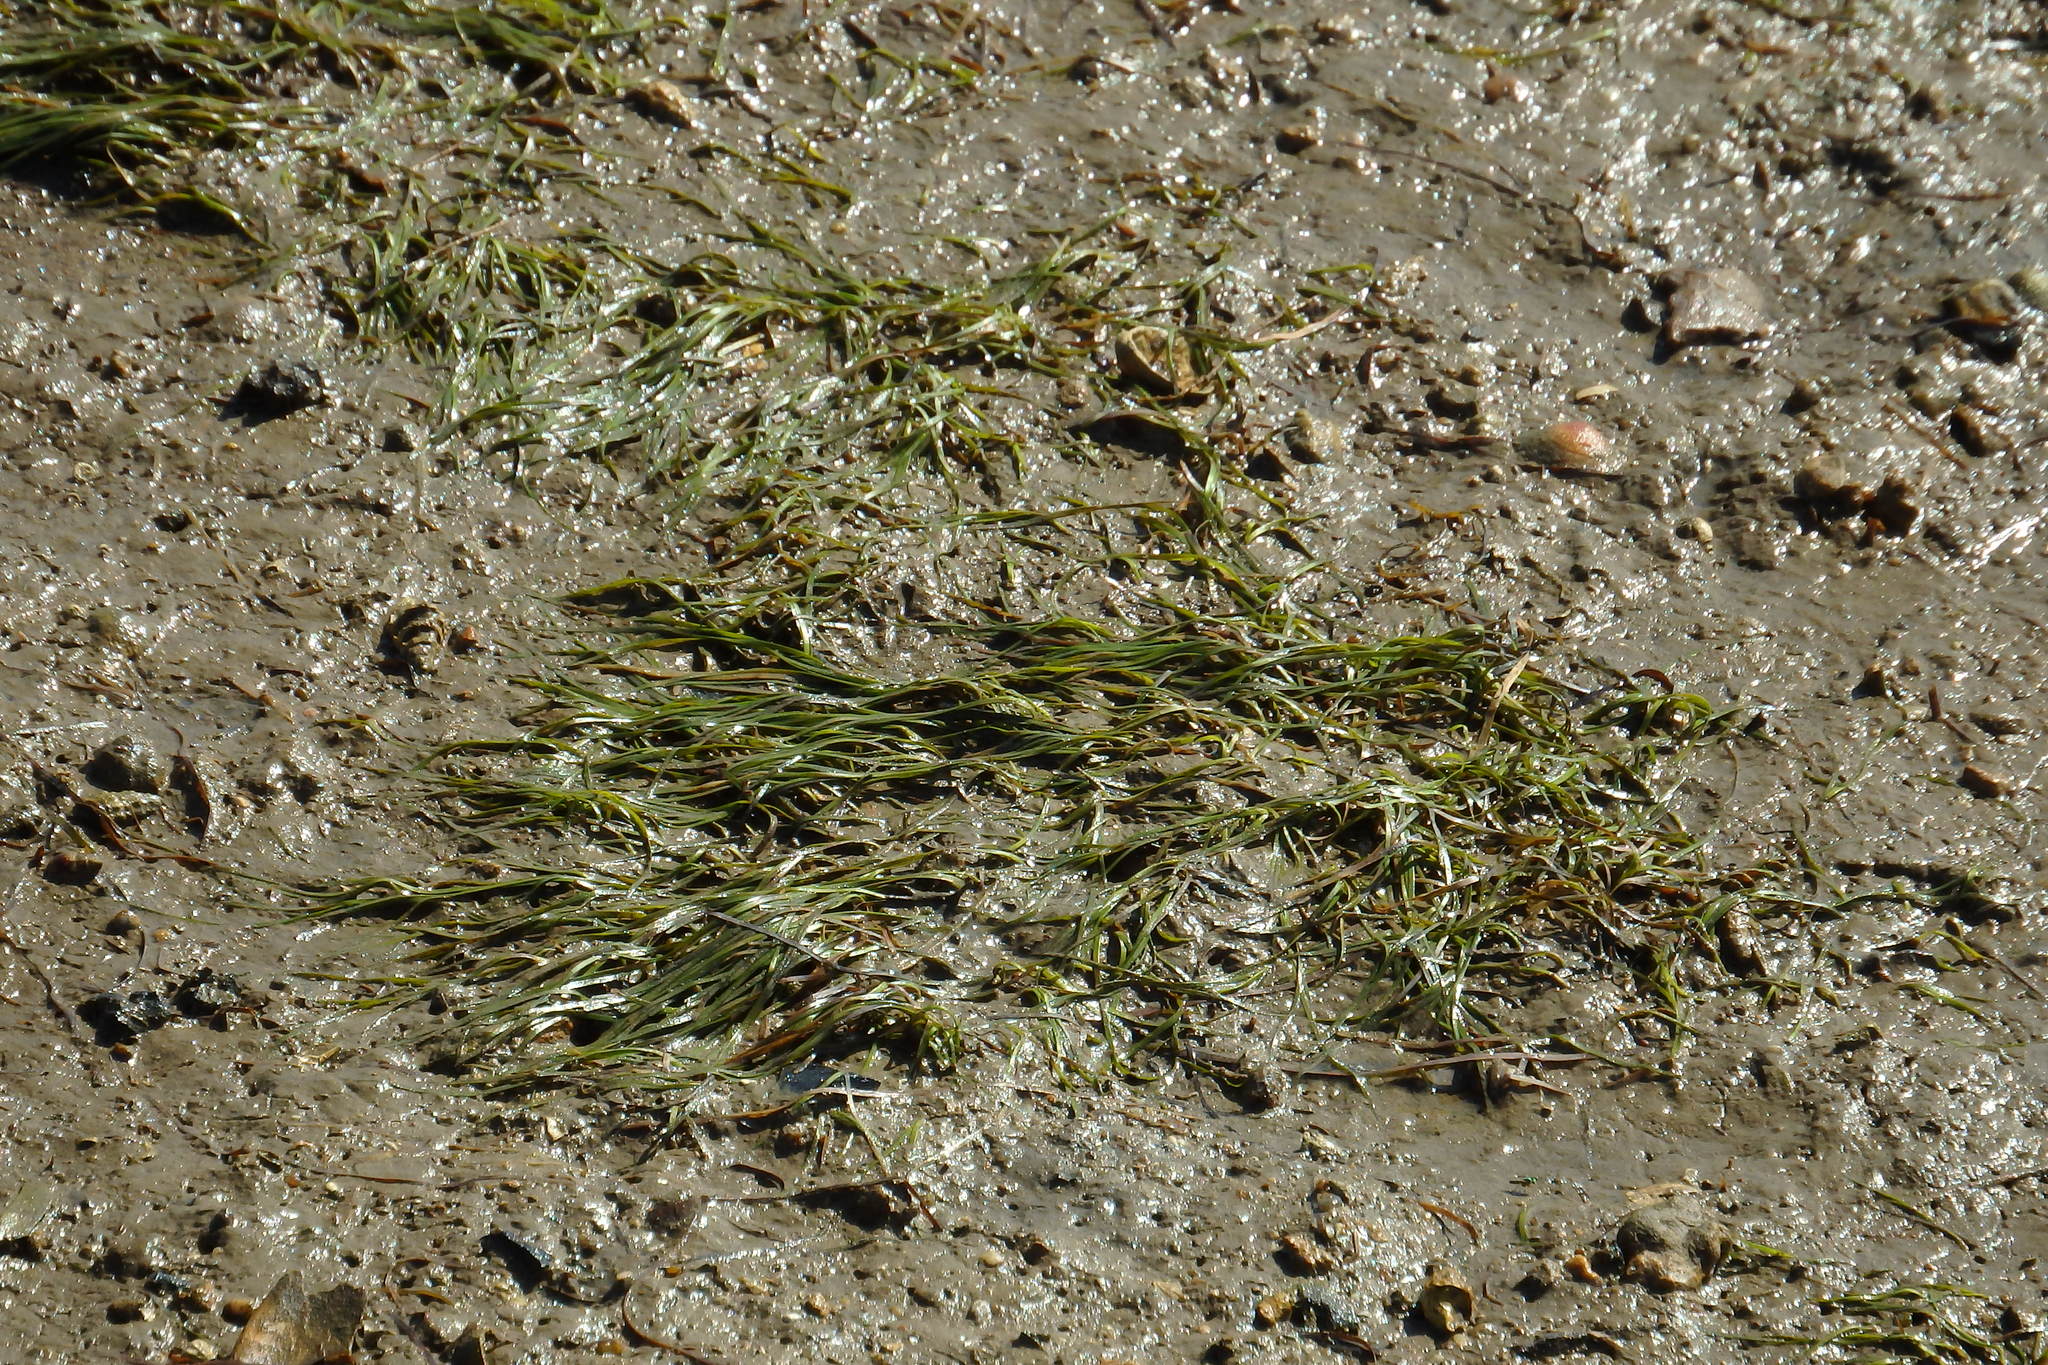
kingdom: Plantae
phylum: Tracheophyta
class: Liliopsida
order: Alismatales
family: Zosteraceae
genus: Zostera
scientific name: Zostera noltii
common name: Dwarf eelgrass
